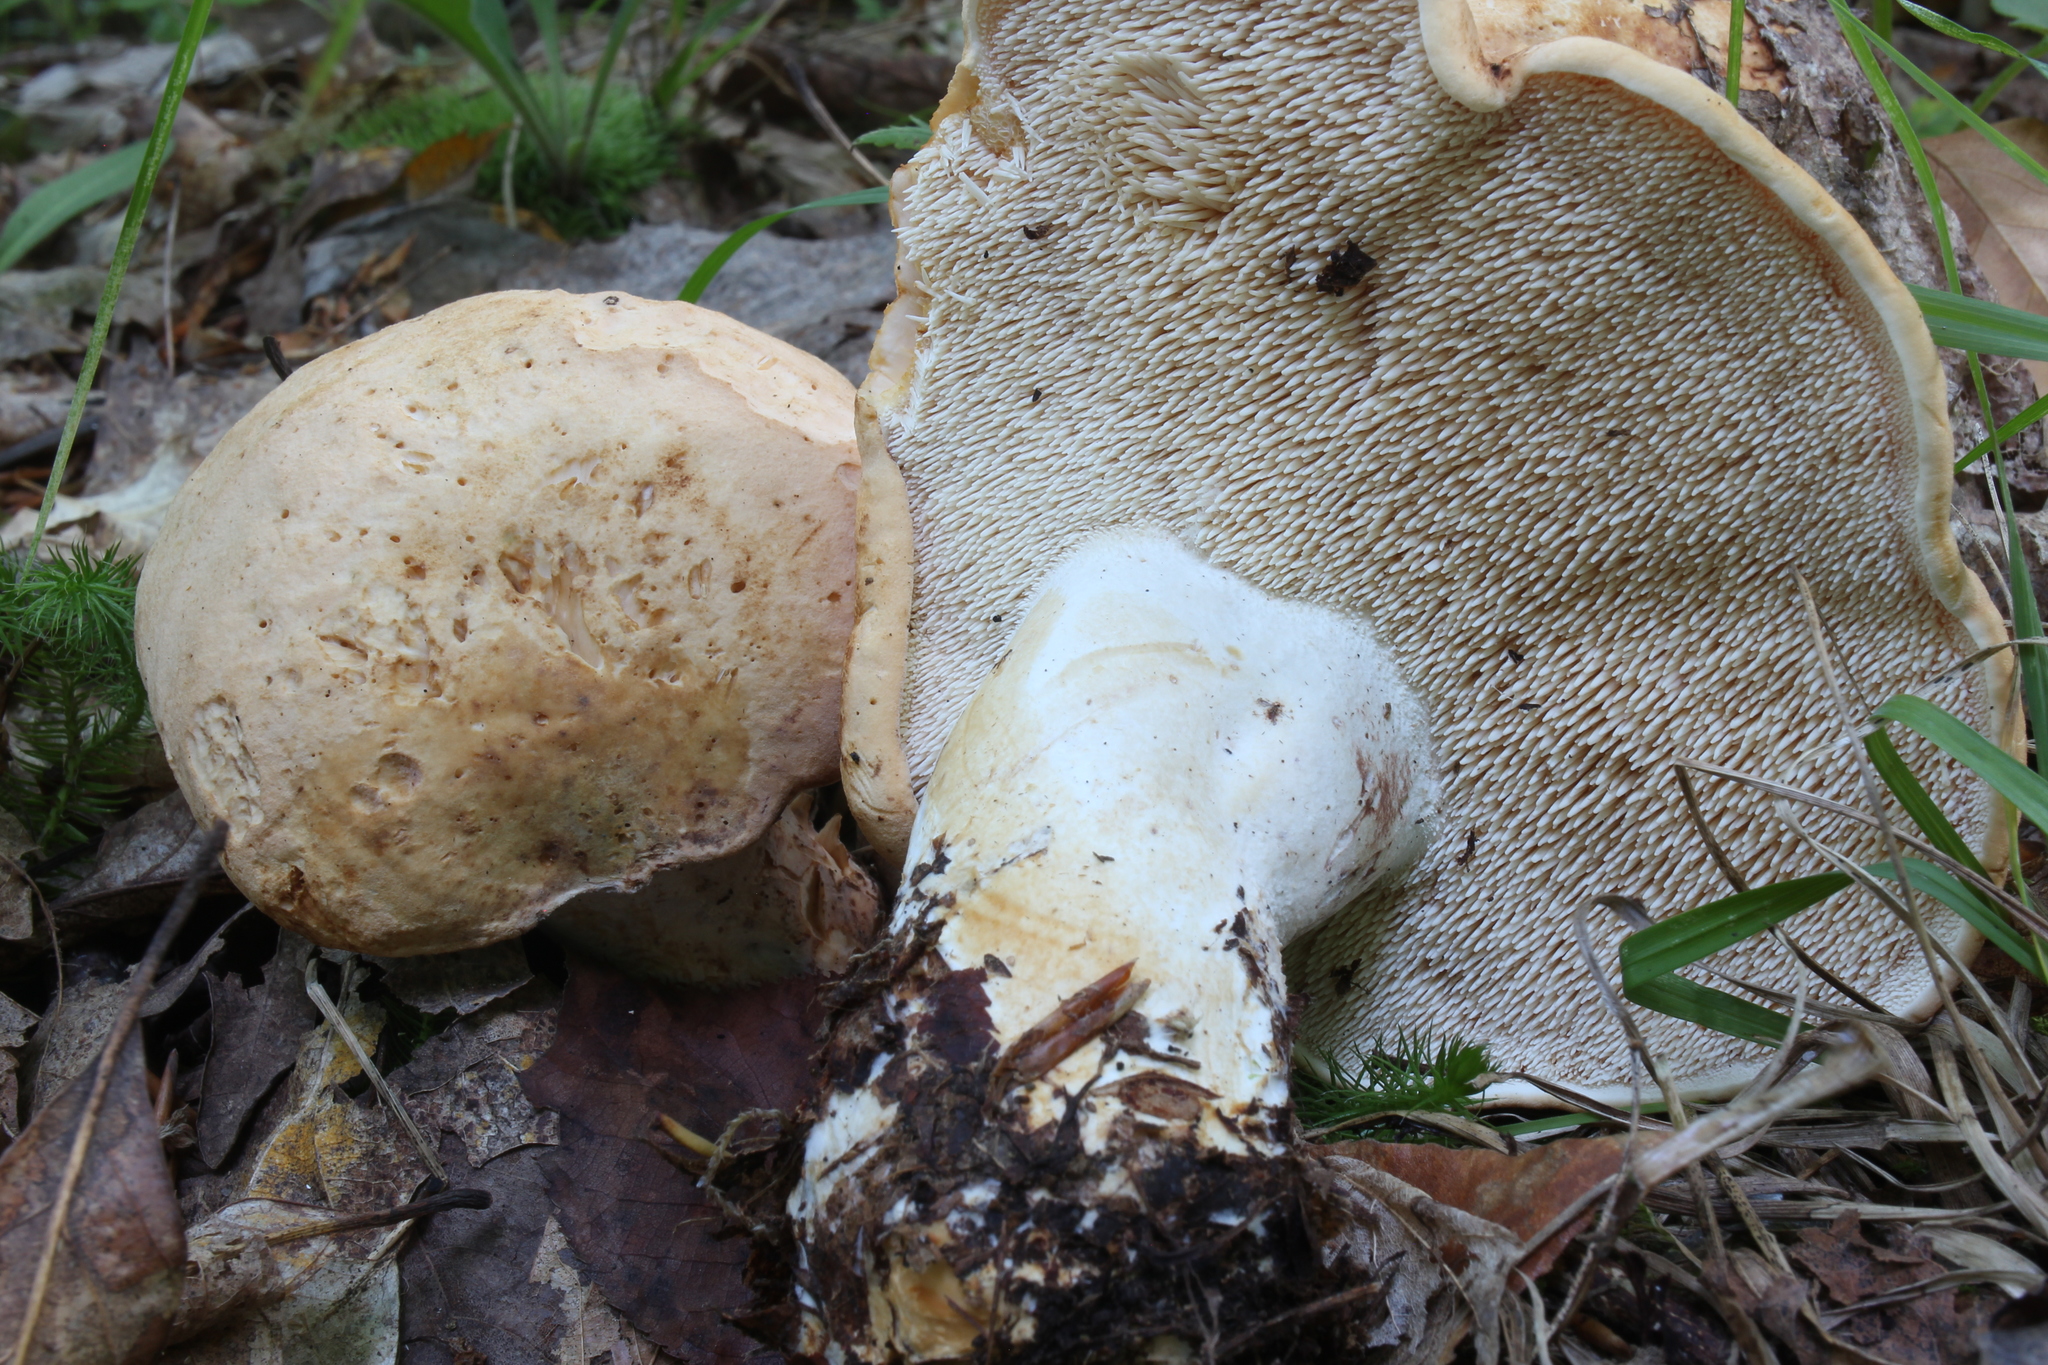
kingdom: Fungi
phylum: Basidiomycota
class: Agaricomycetes
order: Cantharellales
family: Hydnaceae
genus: Hydnum
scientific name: Hydnum subolympicum
